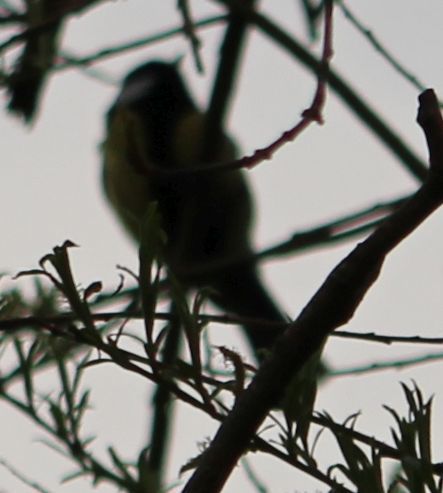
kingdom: Animalia
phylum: Chordata
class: Aves
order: Passeriformes
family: Paridae
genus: Parus
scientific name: Parus major
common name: Great tit
